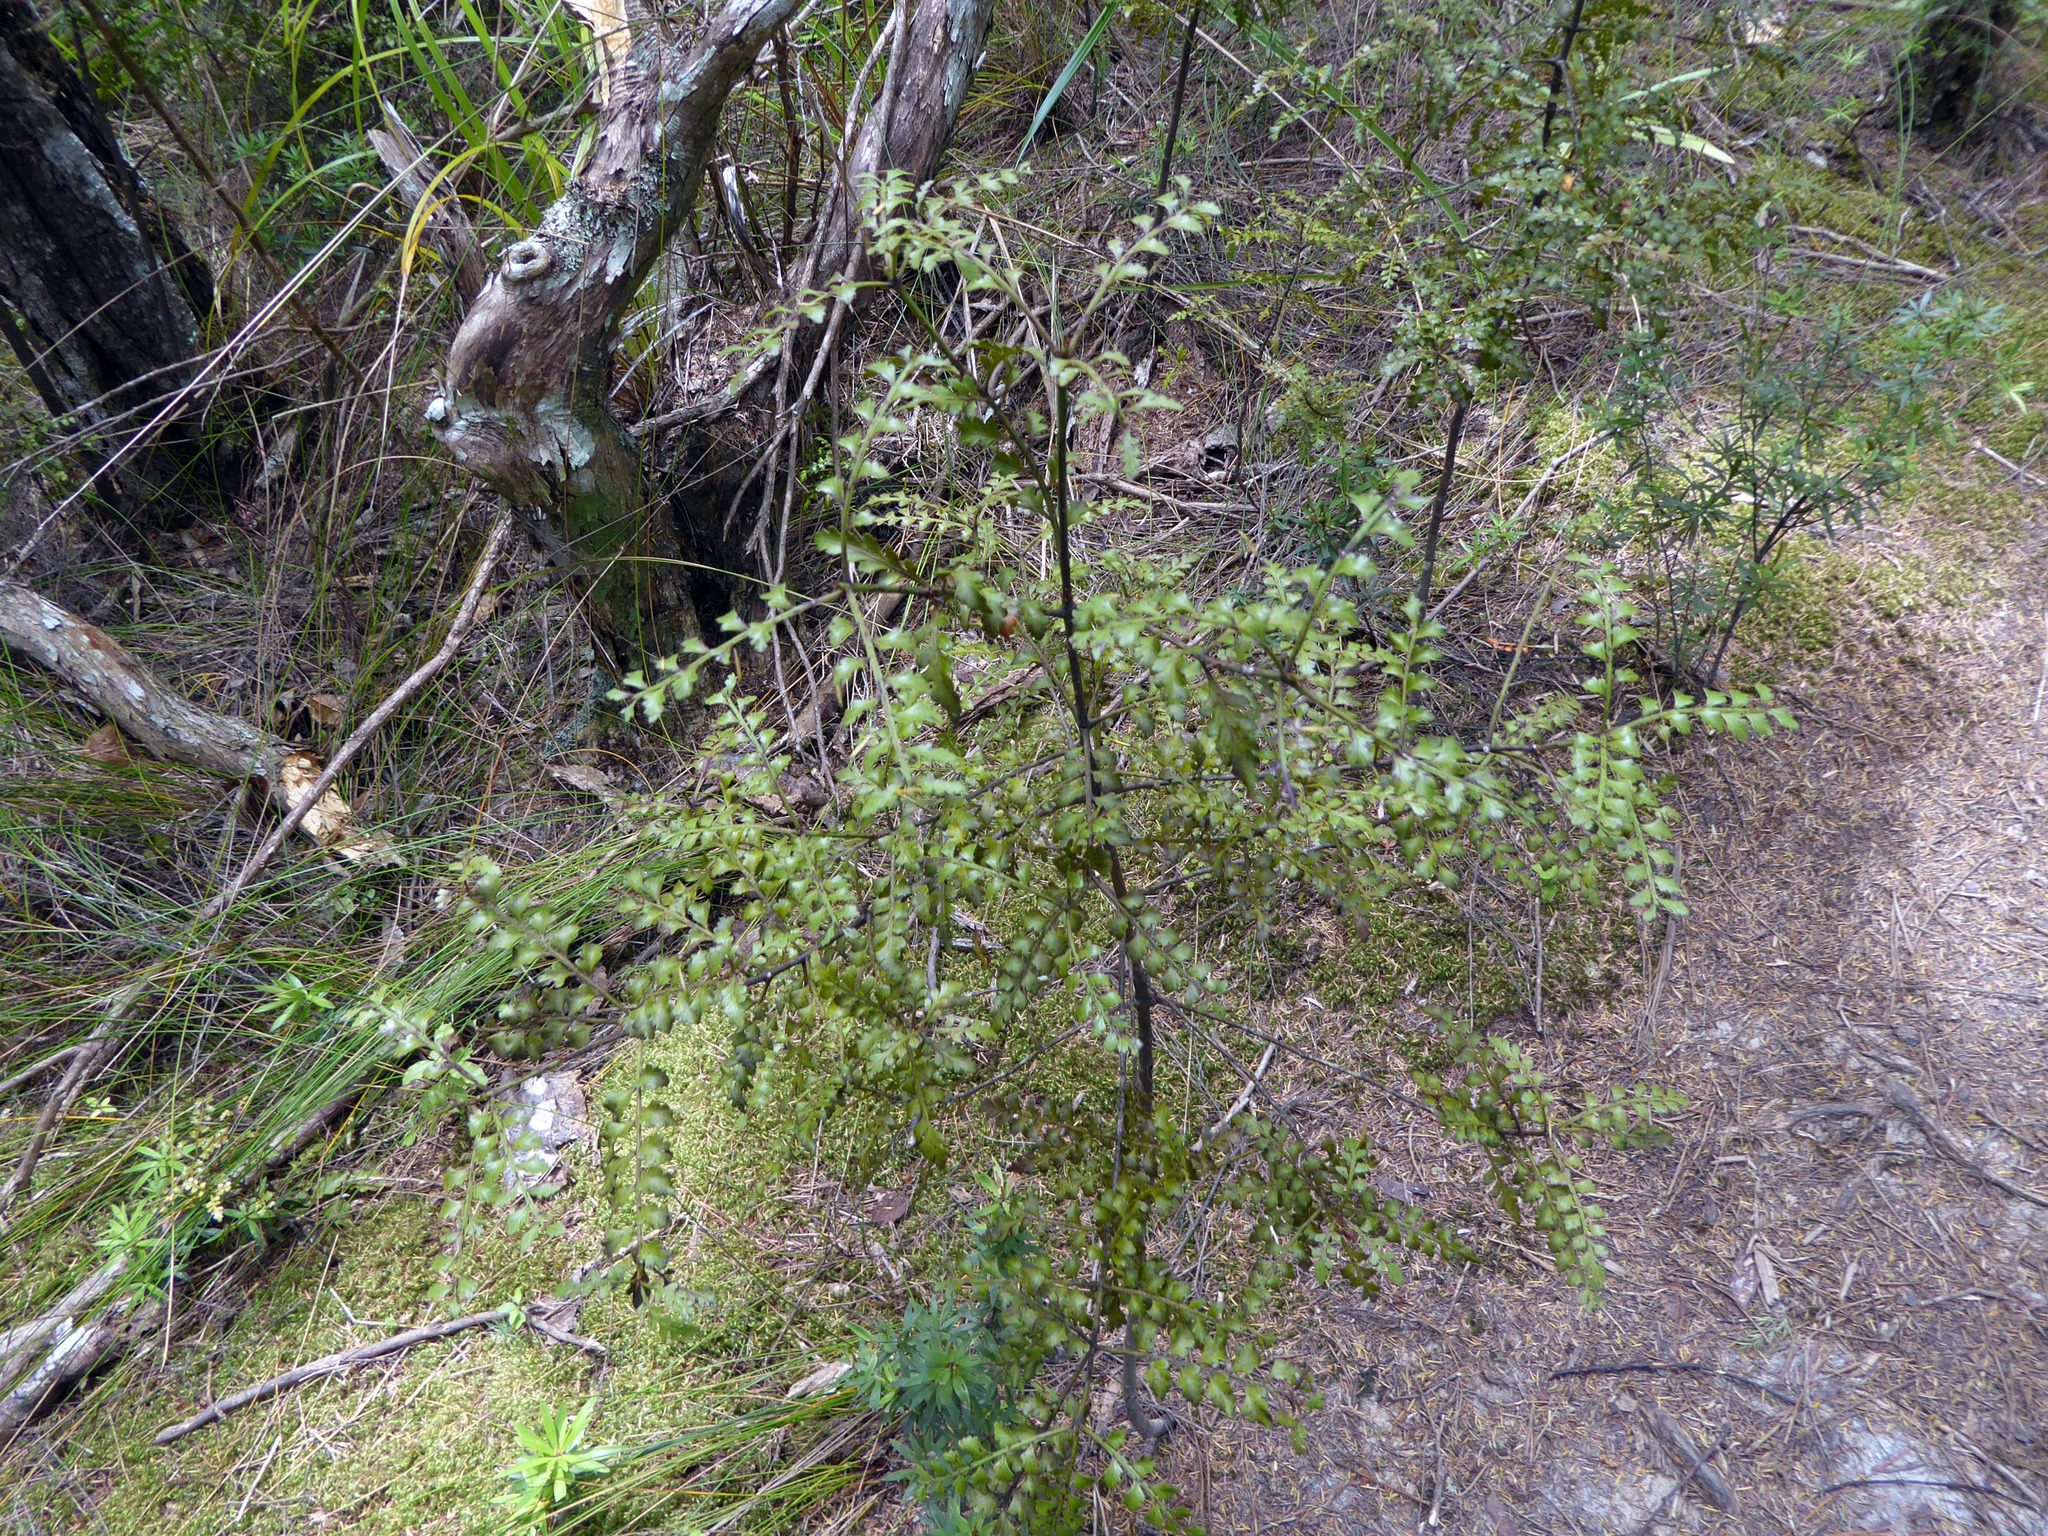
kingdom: Plantae
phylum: Tracheophyta
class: Pinopsida
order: Pinales
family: Phyllocladaceae
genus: Phyllocladus
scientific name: Phyllocladus trichomanoides
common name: Celery pine
